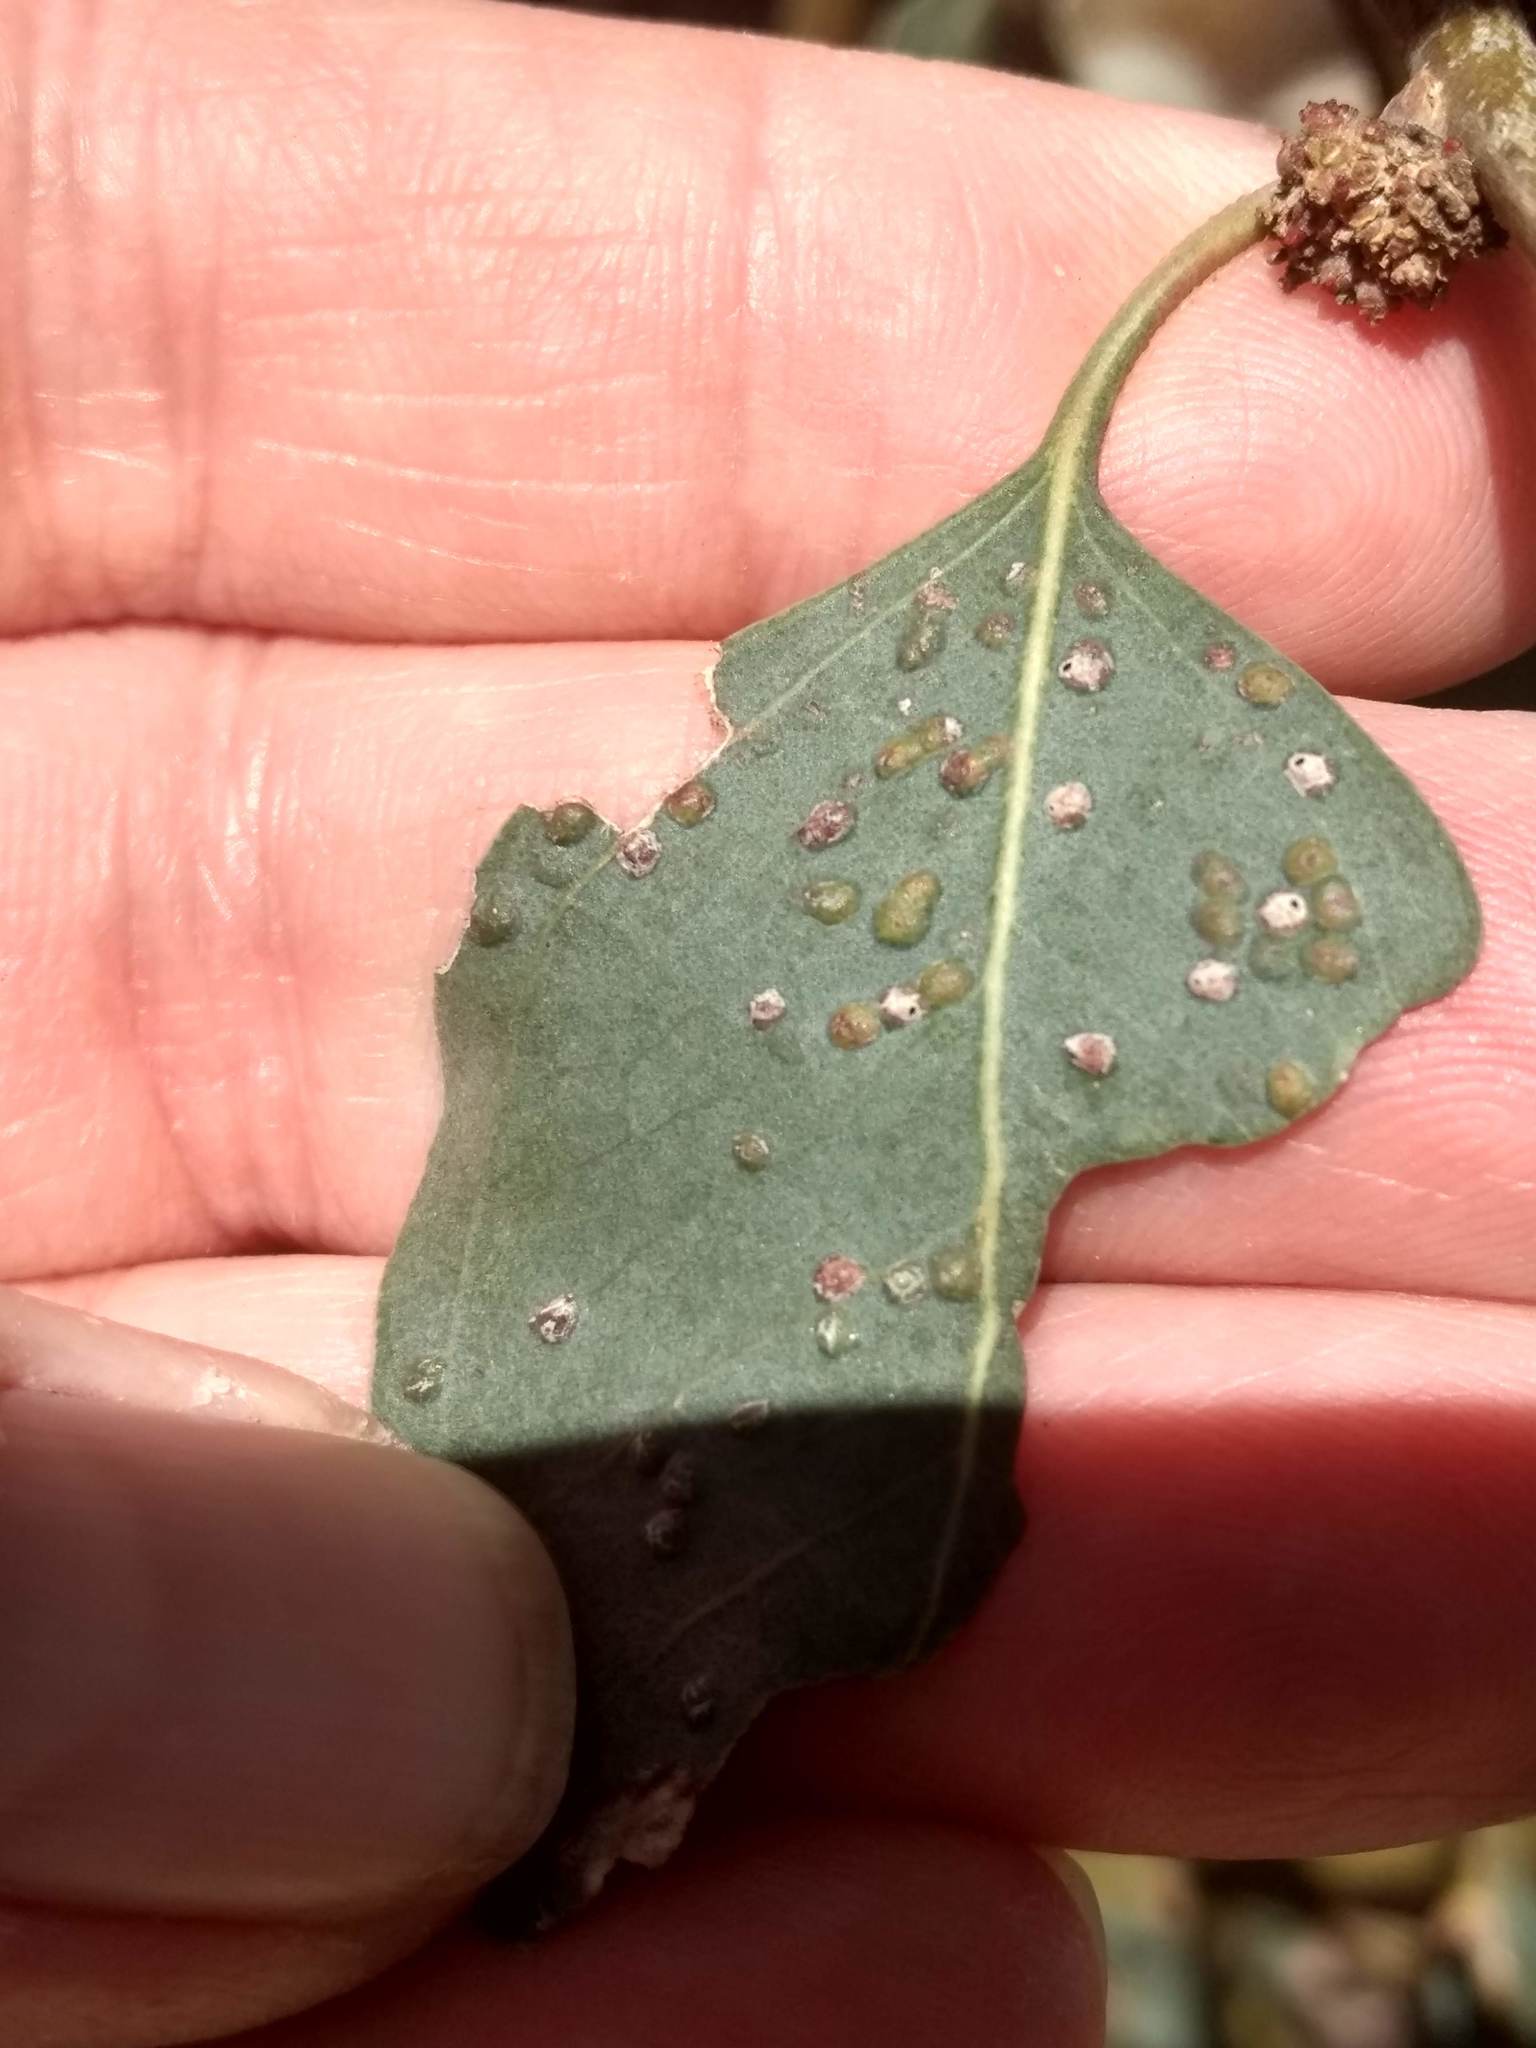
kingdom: Animalia
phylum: Arthropoda
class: Insecta
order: Hymenoptera
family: Eulophidae
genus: Ophelimus
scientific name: Ophelimus maskelli
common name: Gall wasp
